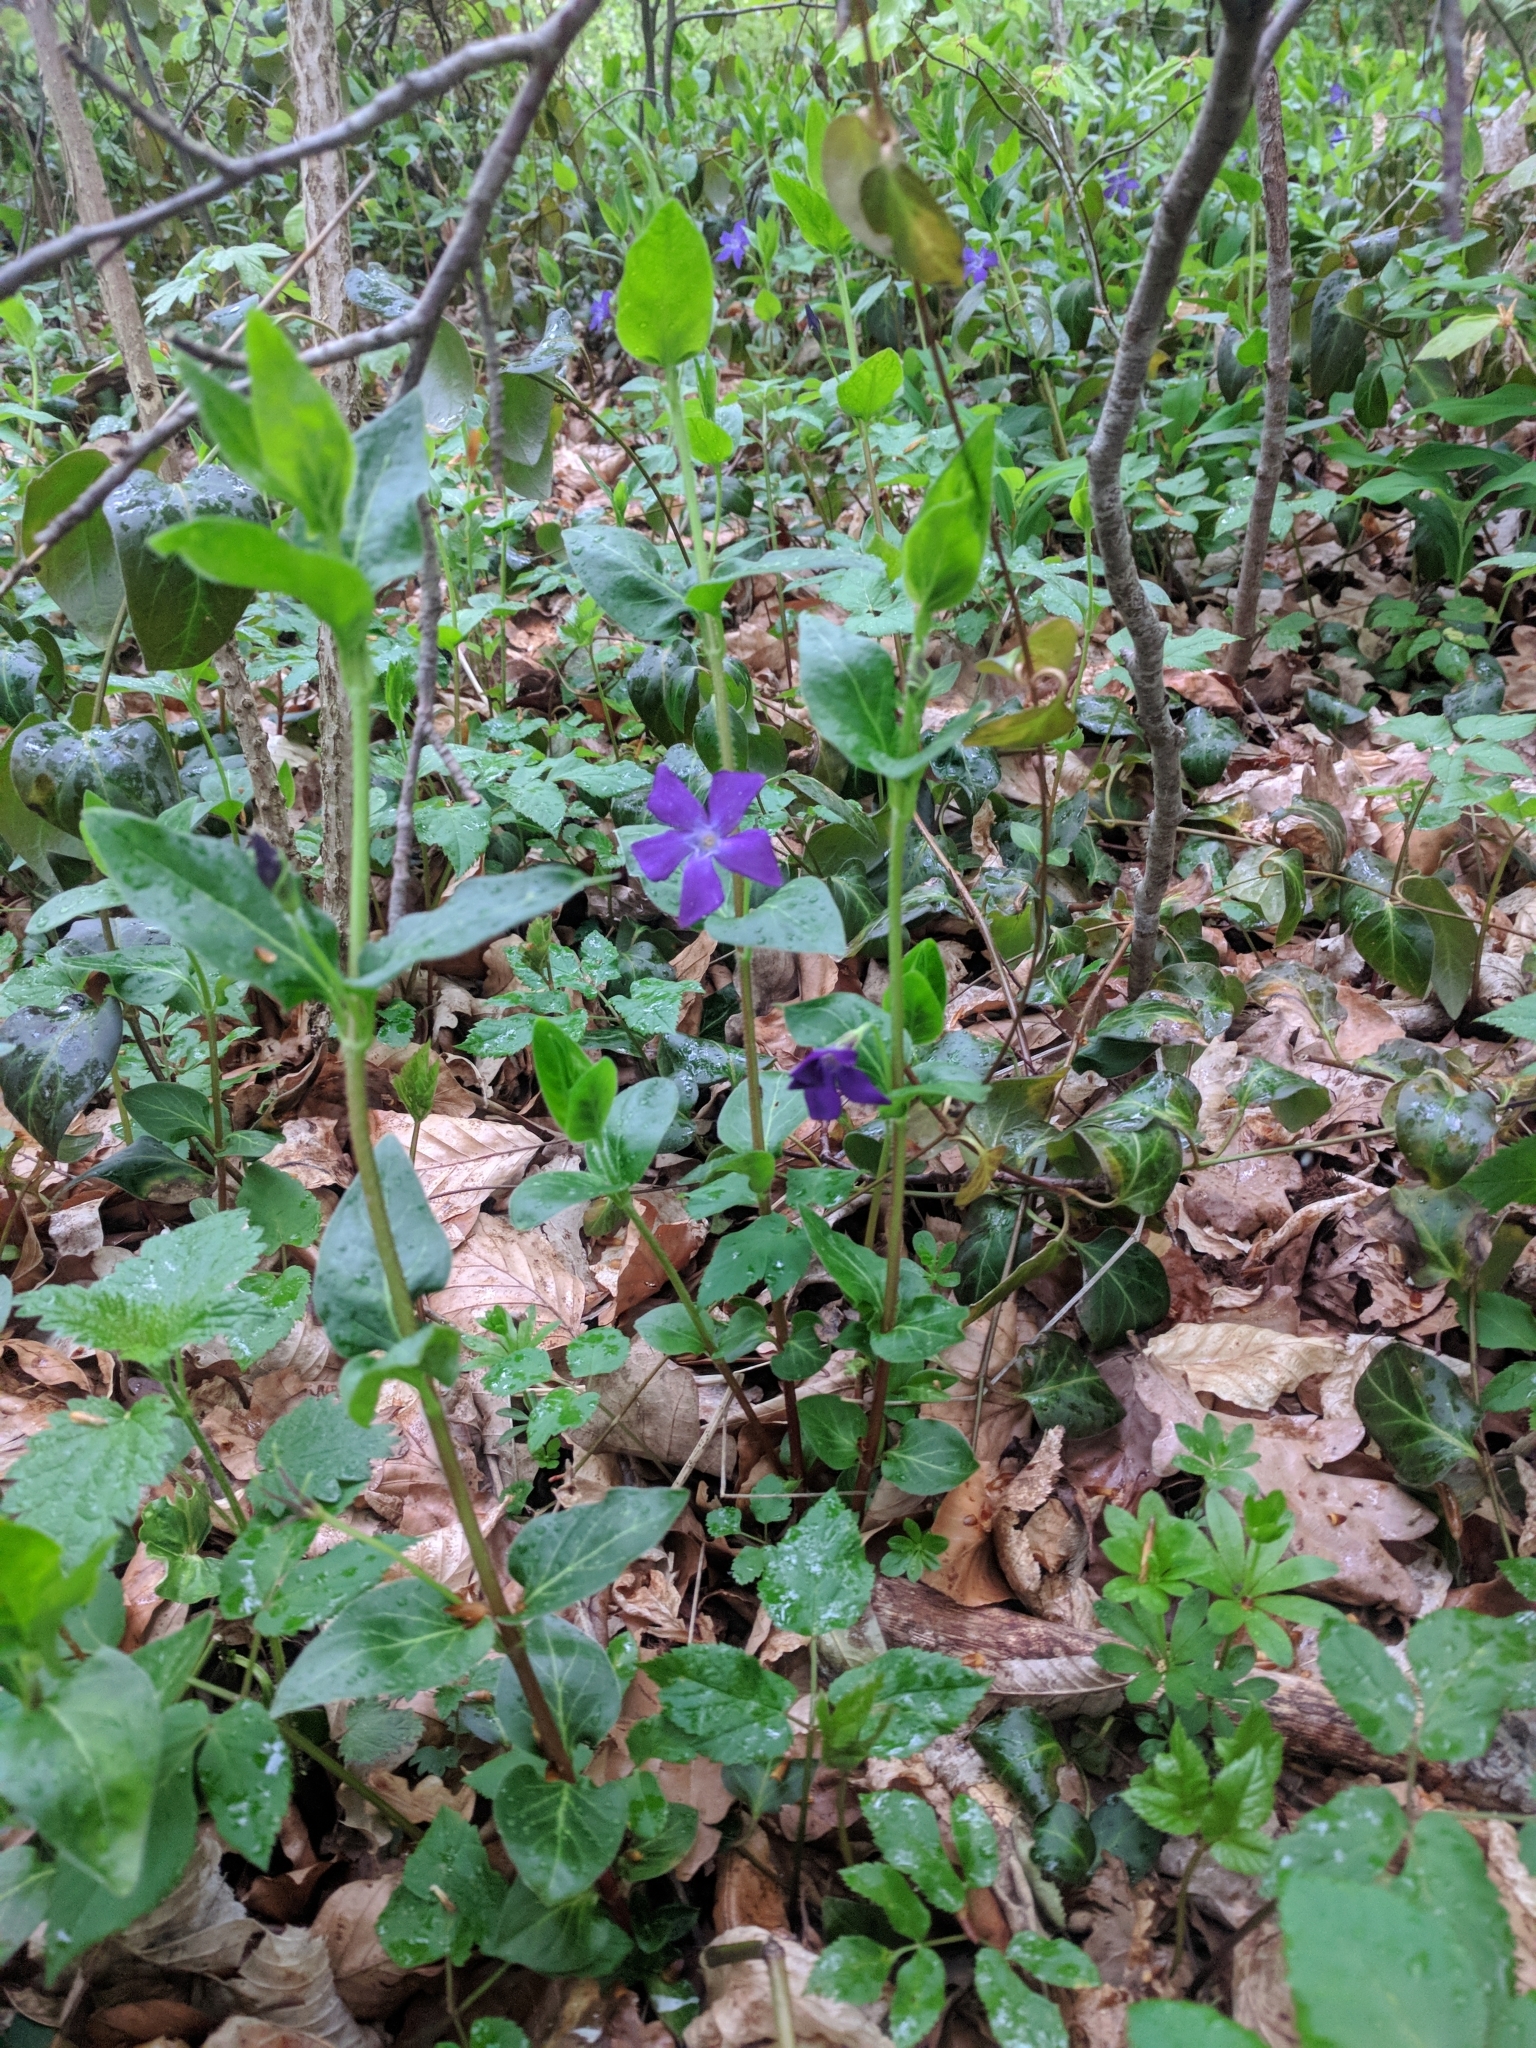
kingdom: Plantae
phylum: Tracheophyta
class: Magnoliopsida
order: Gentianales
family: Apocynaceae
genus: Vinca
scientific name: Vinca major
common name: Greater periwinkle
